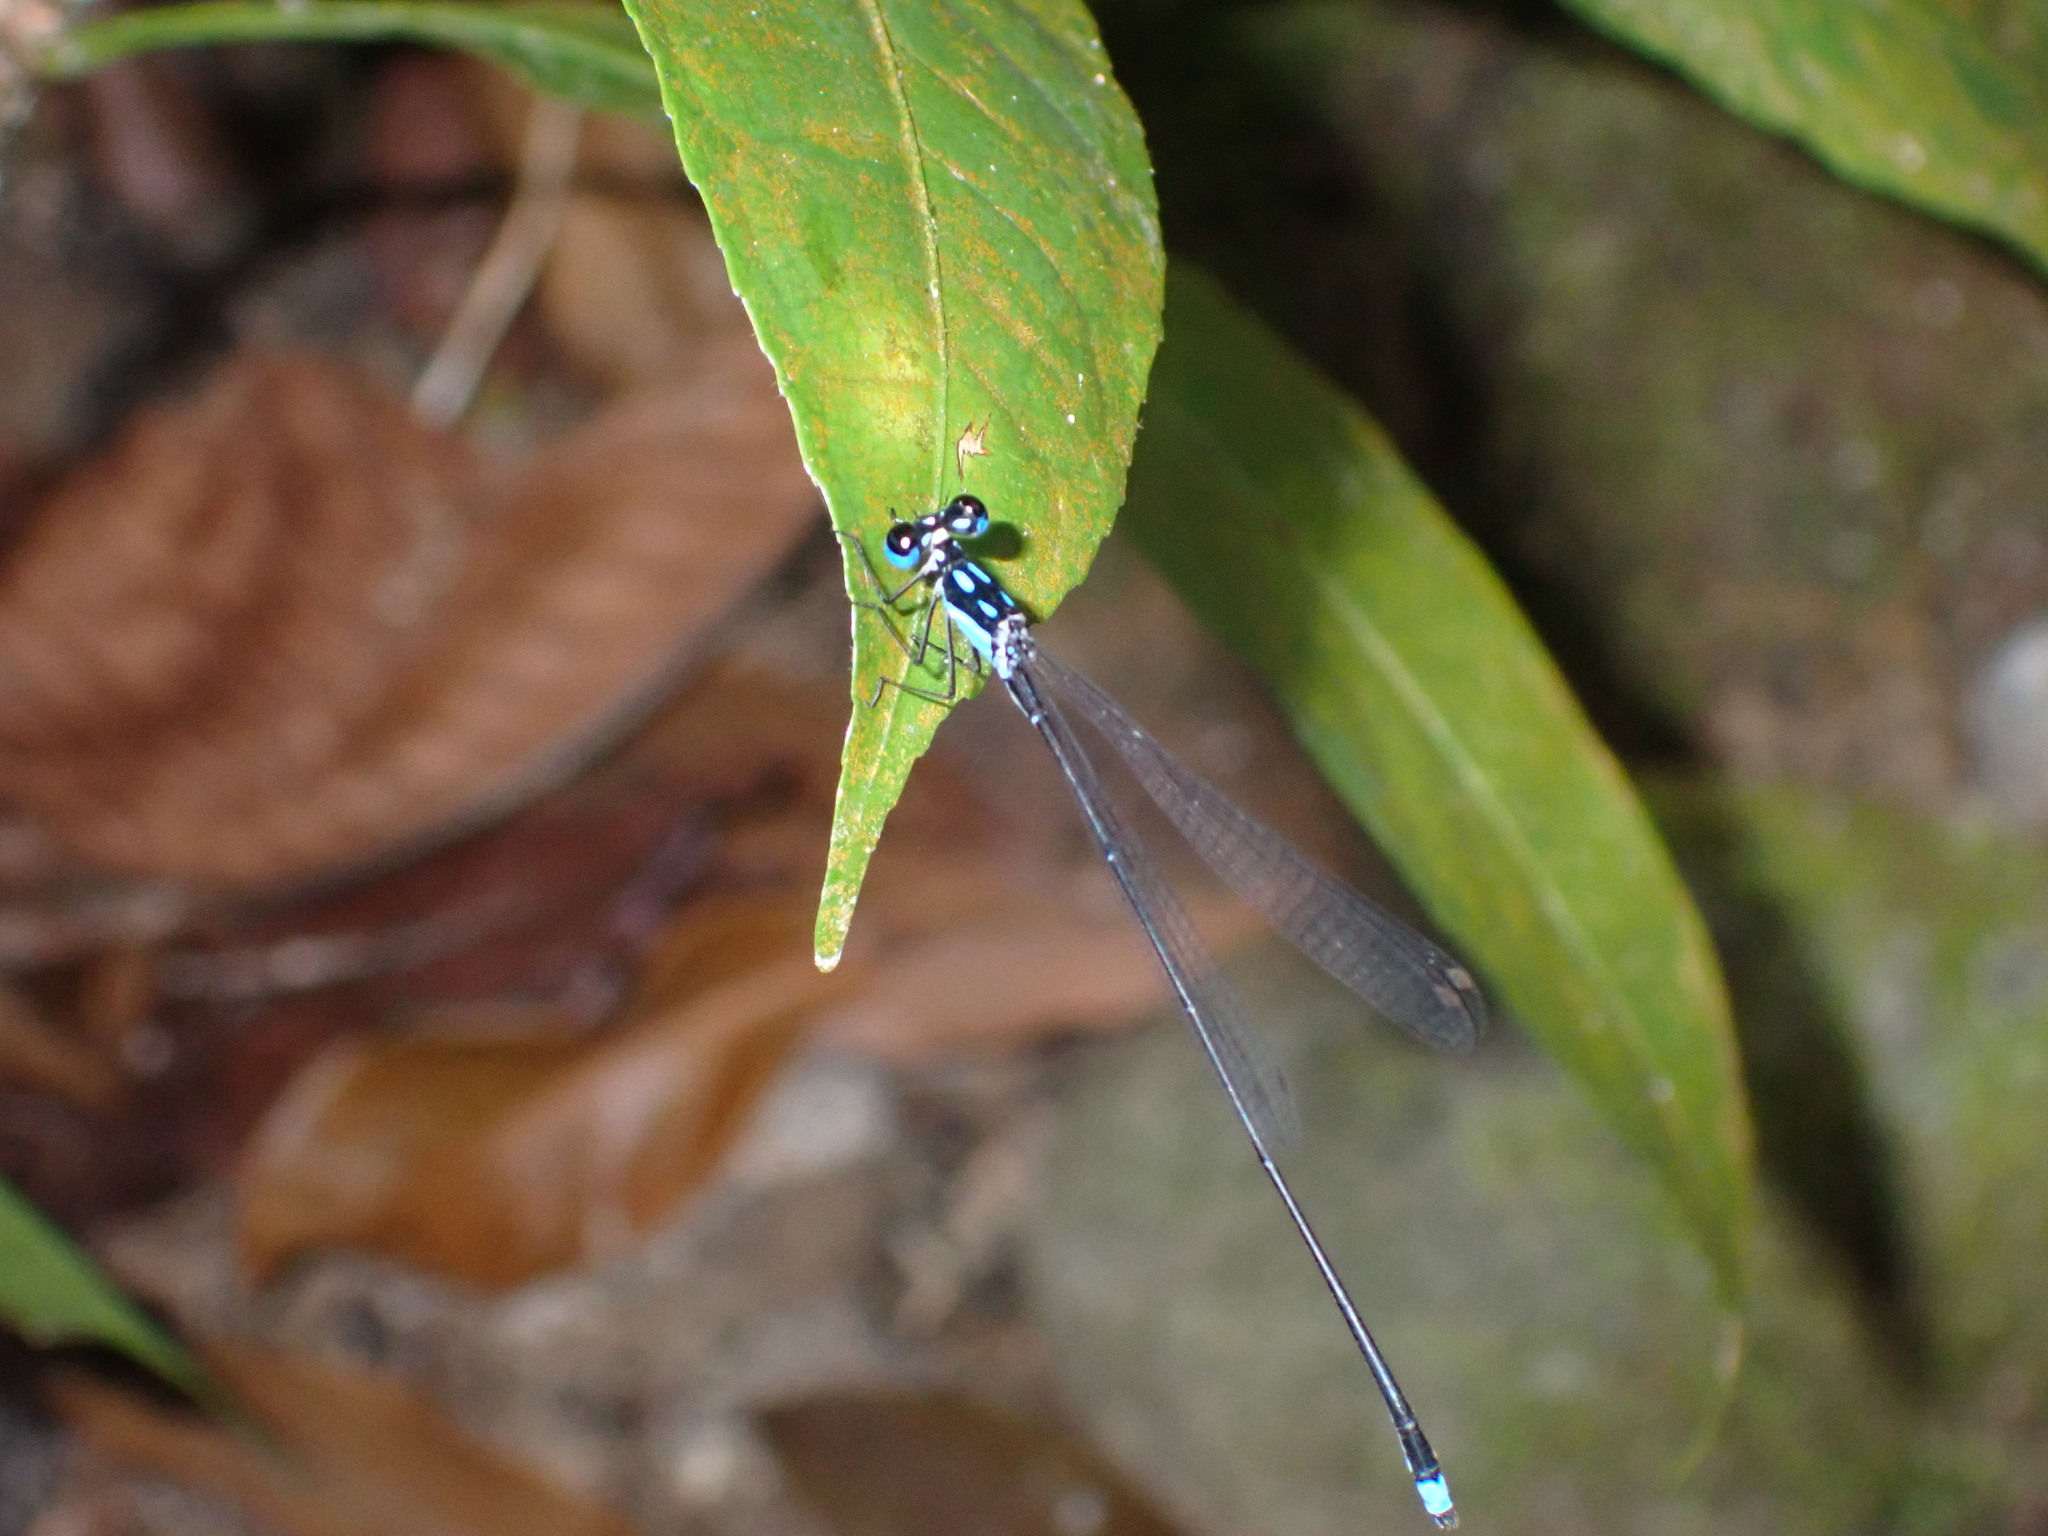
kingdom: Animalia
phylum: Arthropoda
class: Insecta
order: Odonata
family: Platycnemididae
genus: Coeliccia
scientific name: Coeliccia didyma
